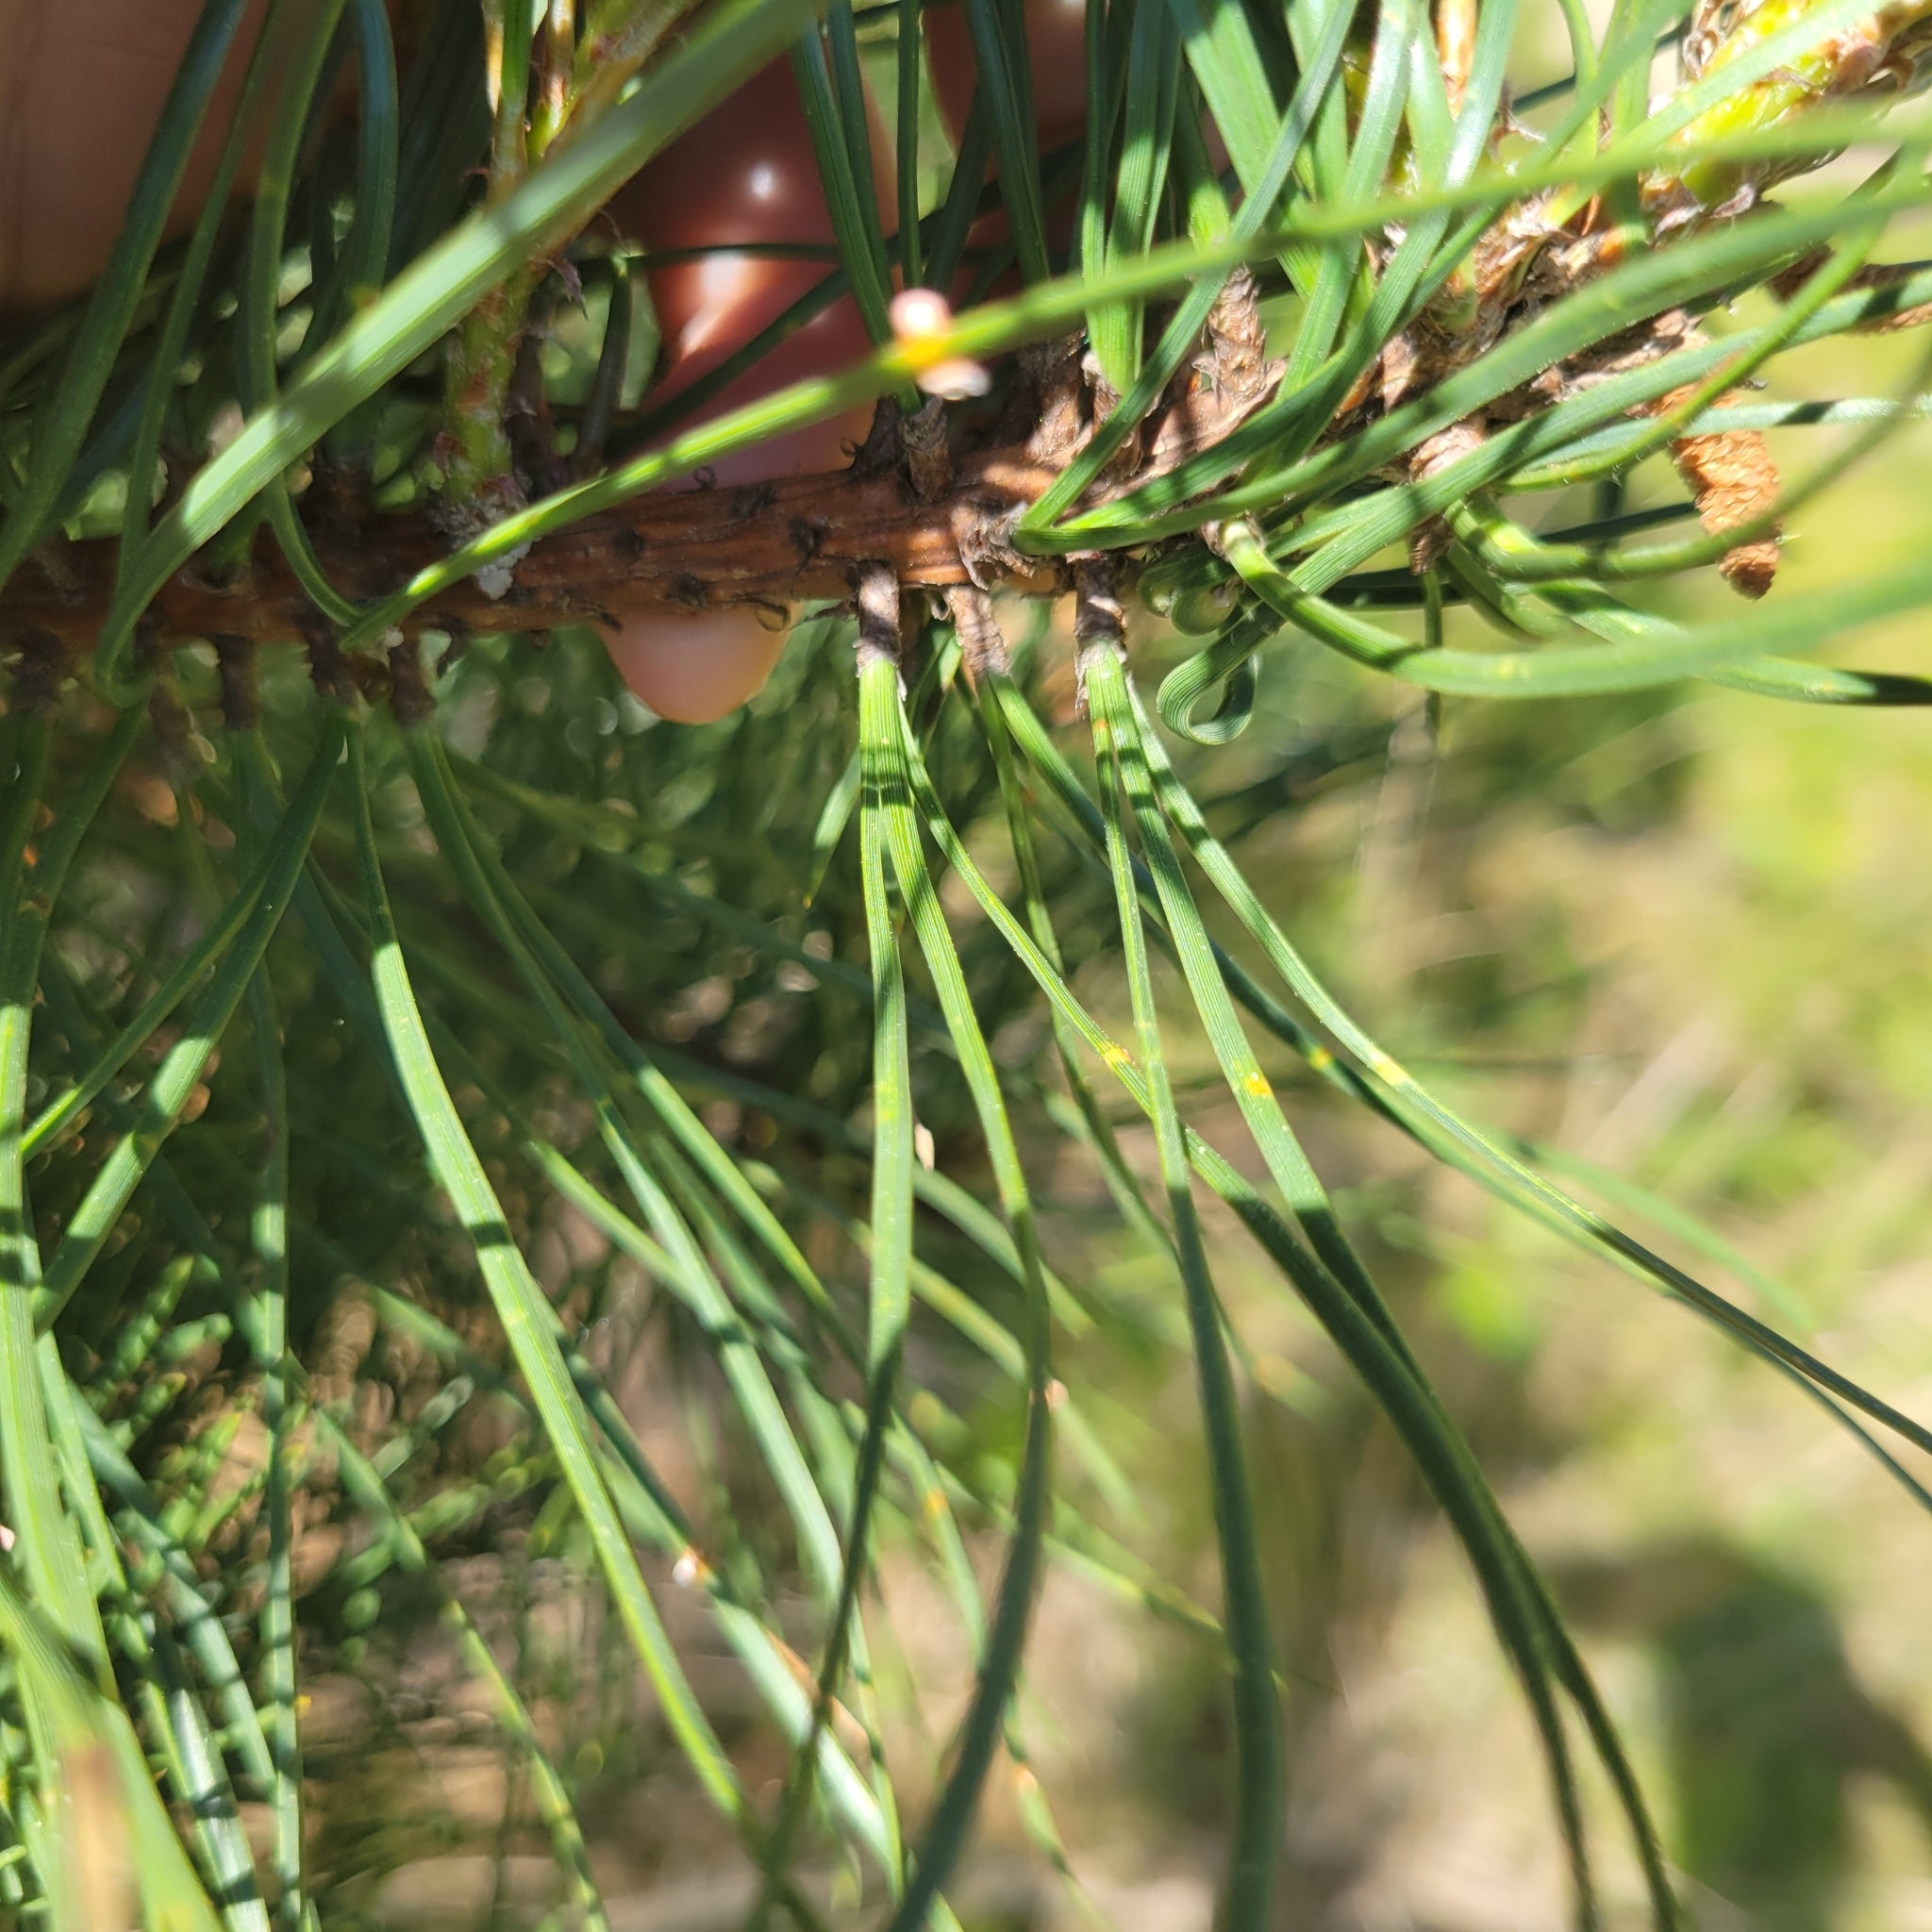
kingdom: Plantae
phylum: Tracheophyta
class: Pinopsida
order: Pinales
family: Pinaceae
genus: Pinus
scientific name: Pinus rigida
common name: Pitch pine
